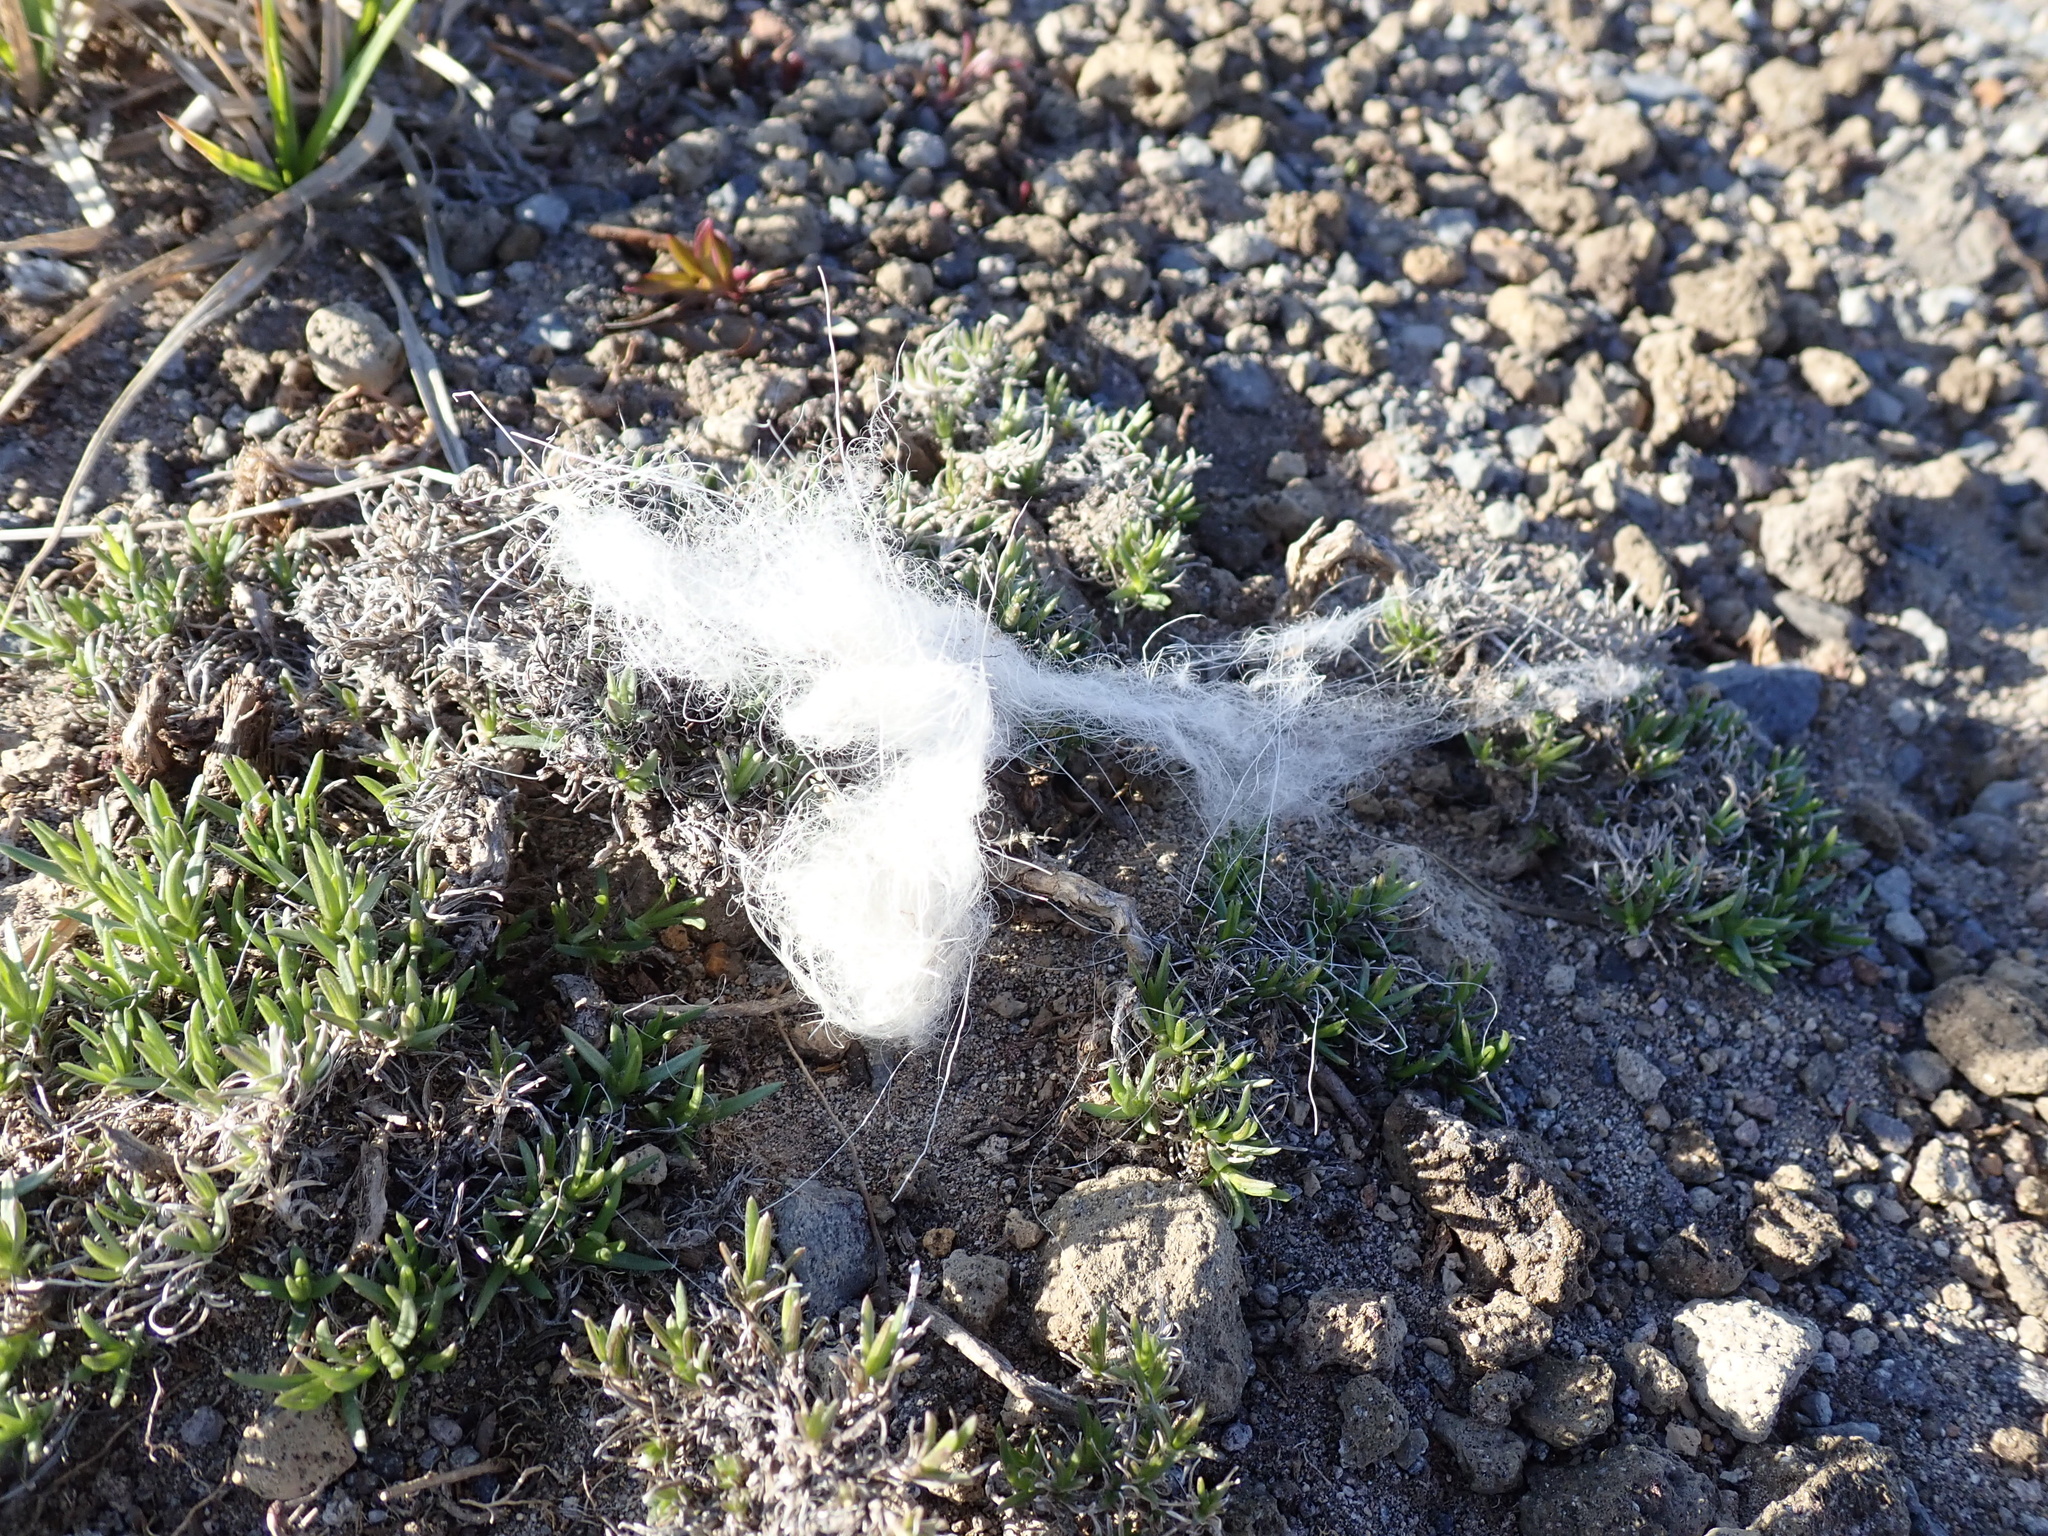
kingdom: Animalia
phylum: Chordata
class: Mammalia
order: Artiodactyla
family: Bovidae
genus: Oreamnos
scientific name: Oreamnos americanus
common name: Mountain goat
